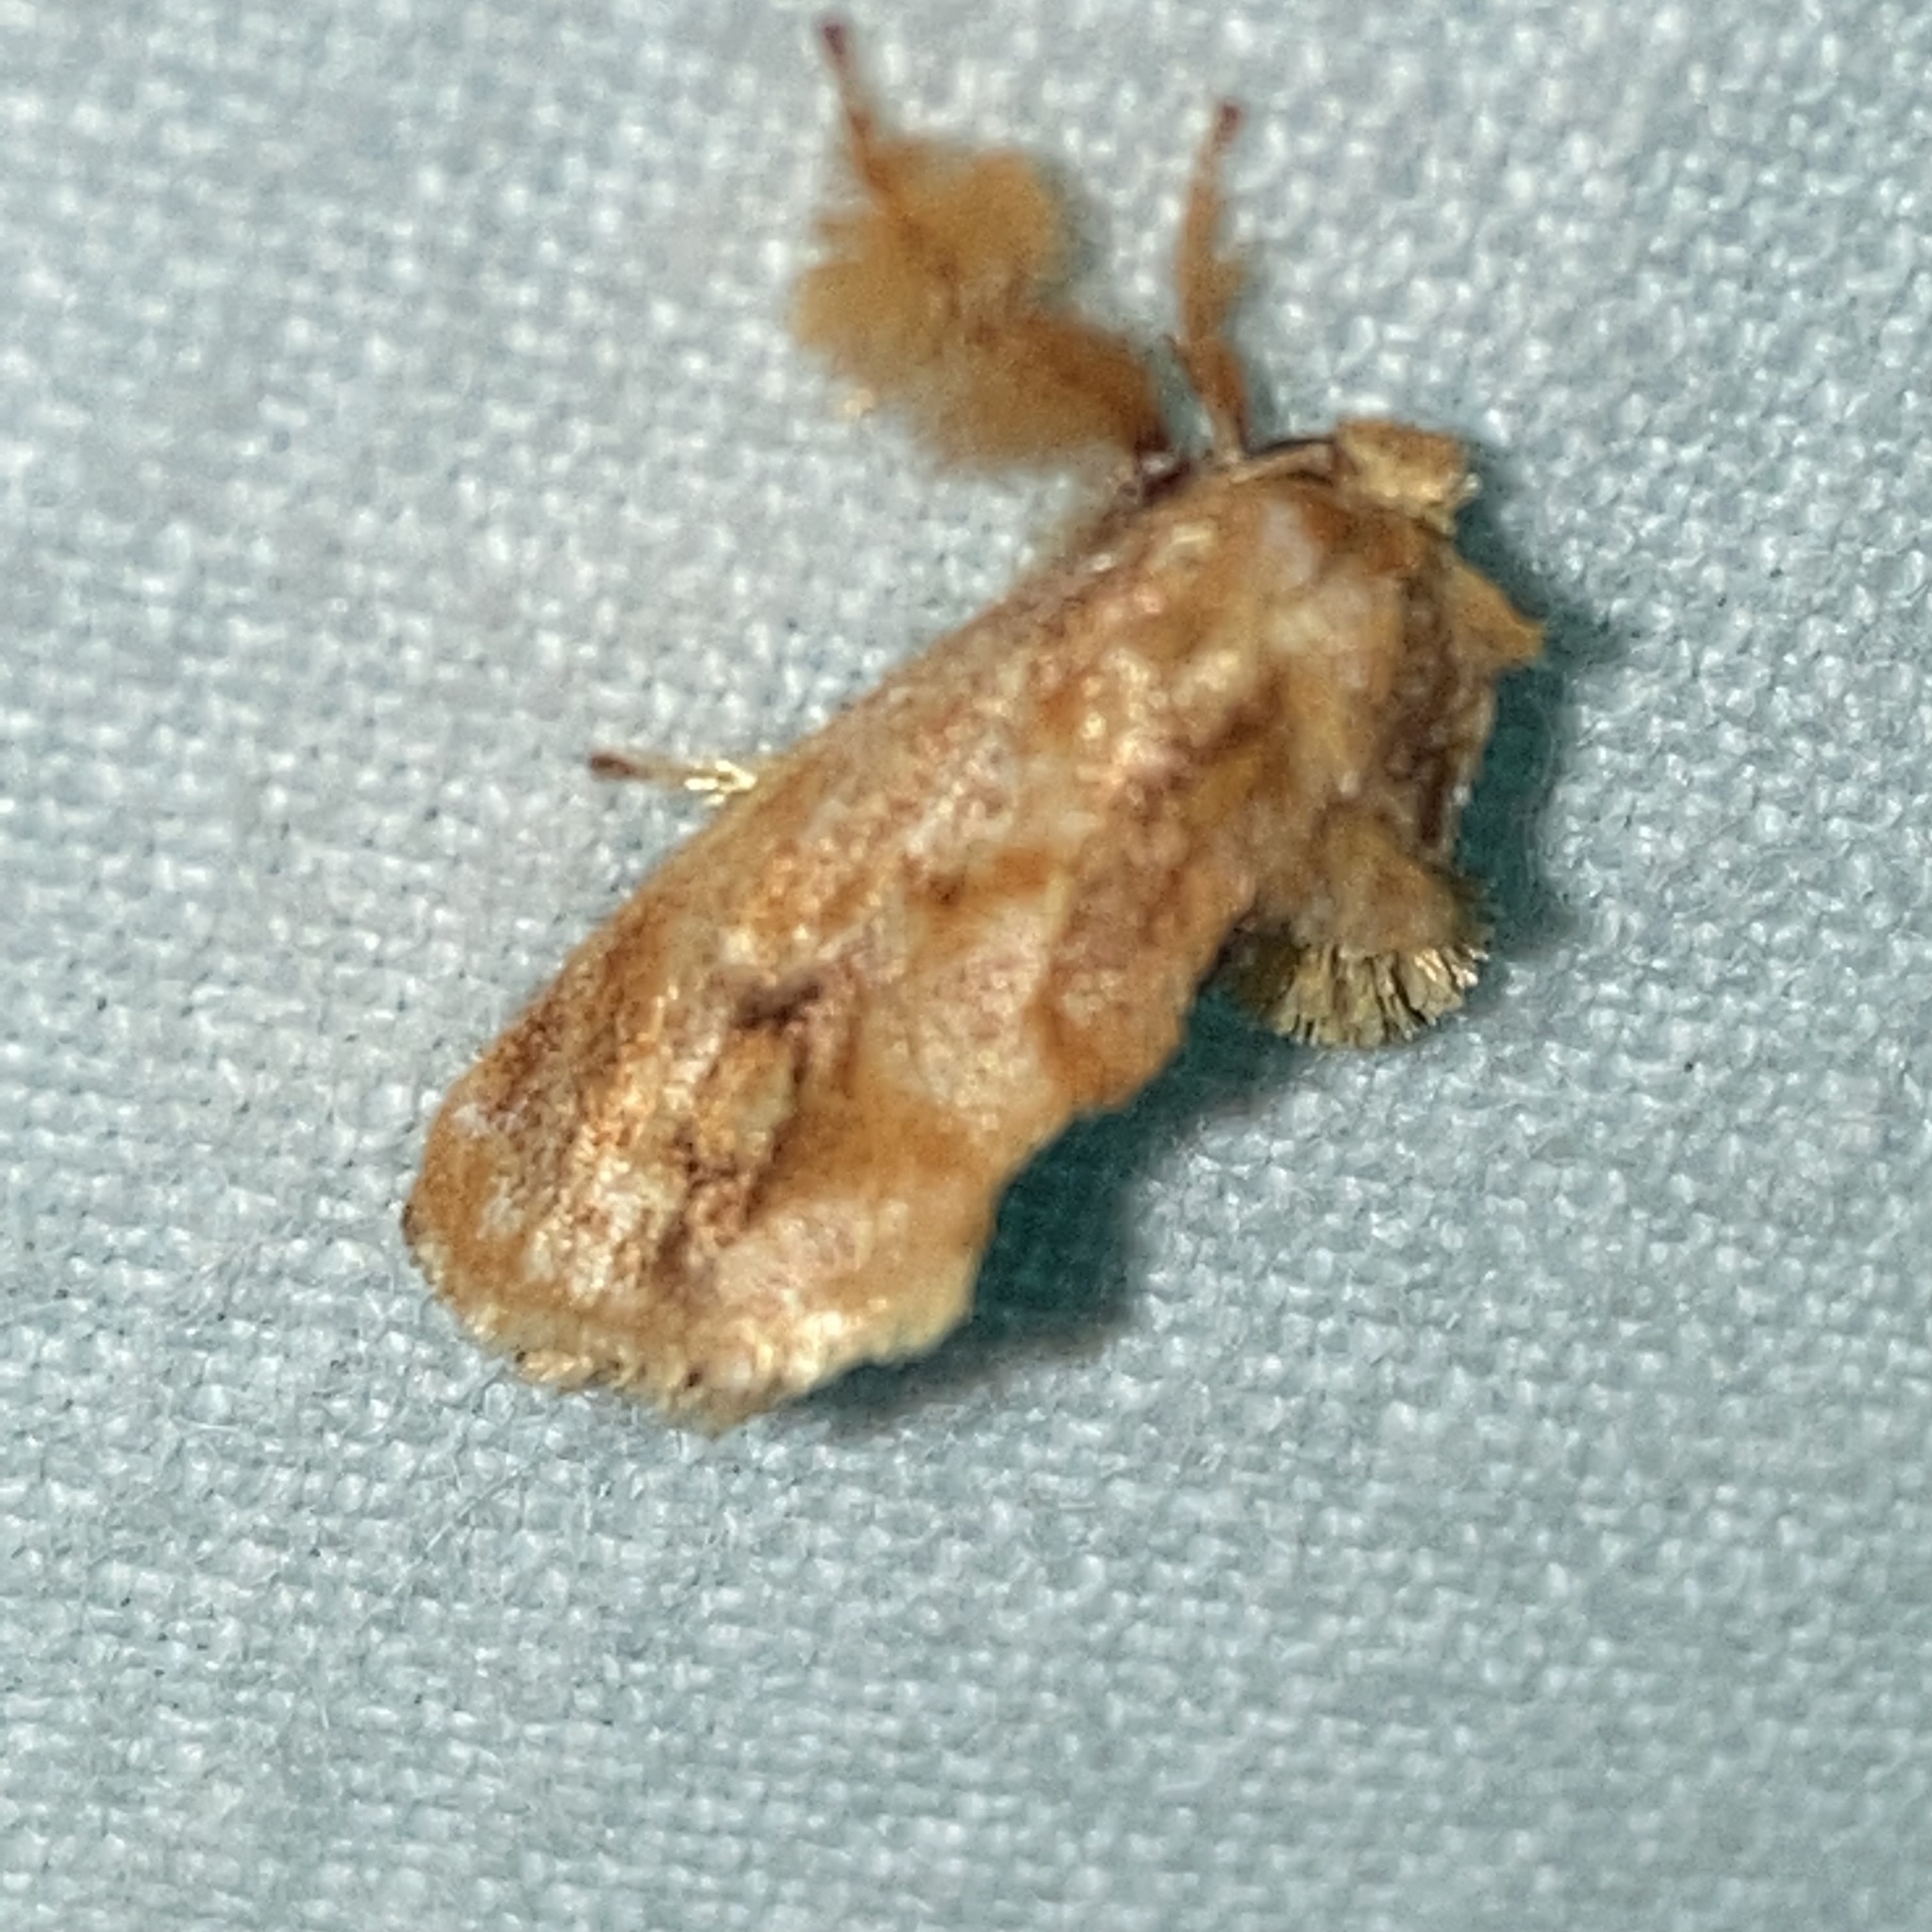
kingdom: Animalia
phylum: Arthropoda
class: Insecta
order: Lepidoptera
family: Limacodidae
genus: Isochaetes
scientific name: Isochaetes beutenmuelleri
